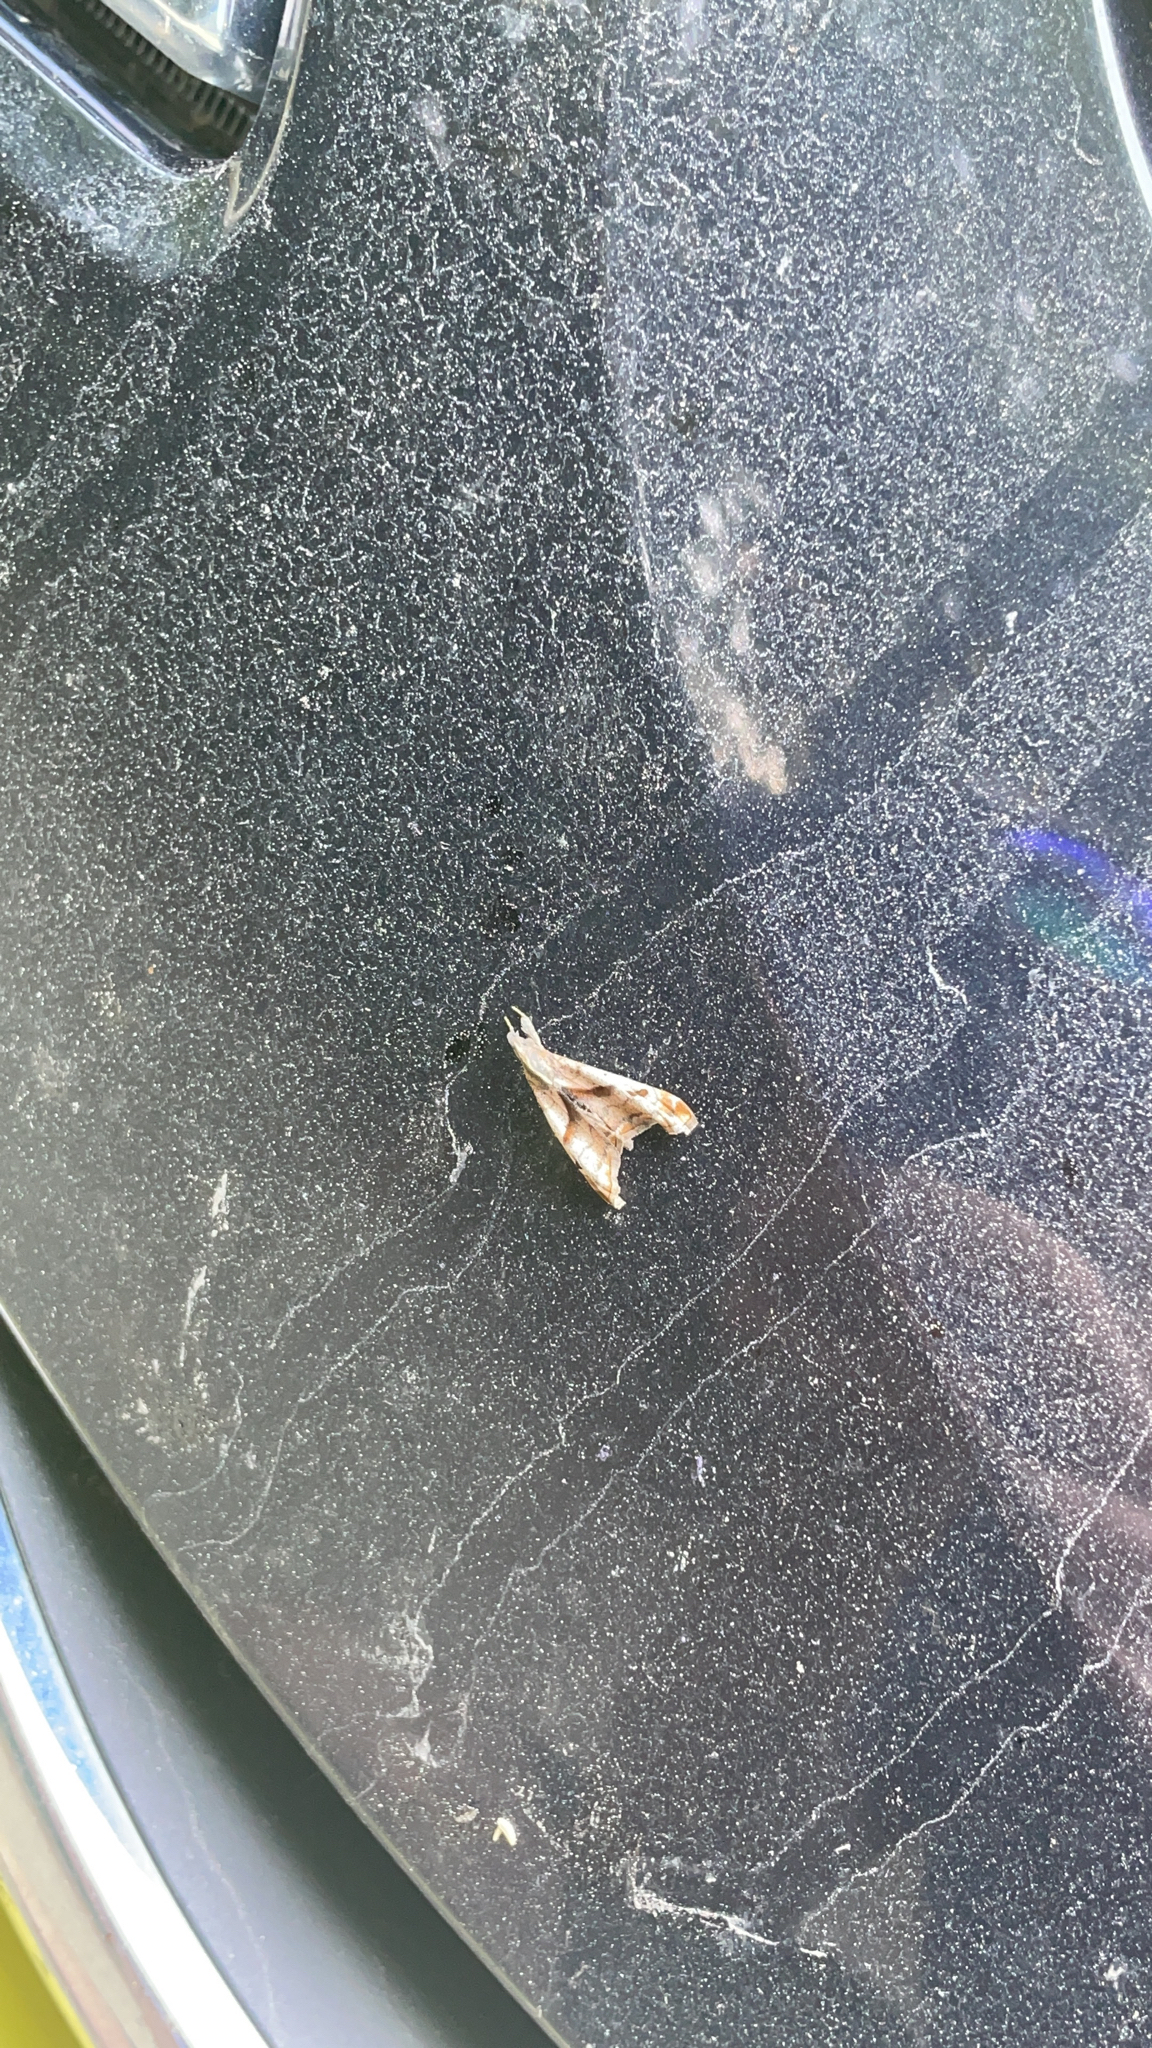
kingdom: Animalia
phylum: Arthropoda
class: Insecta
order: Lepidoptera
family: Erebidae
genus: Palthis
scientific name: Palthis angulalis
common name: Dark-spotted palthis moth
